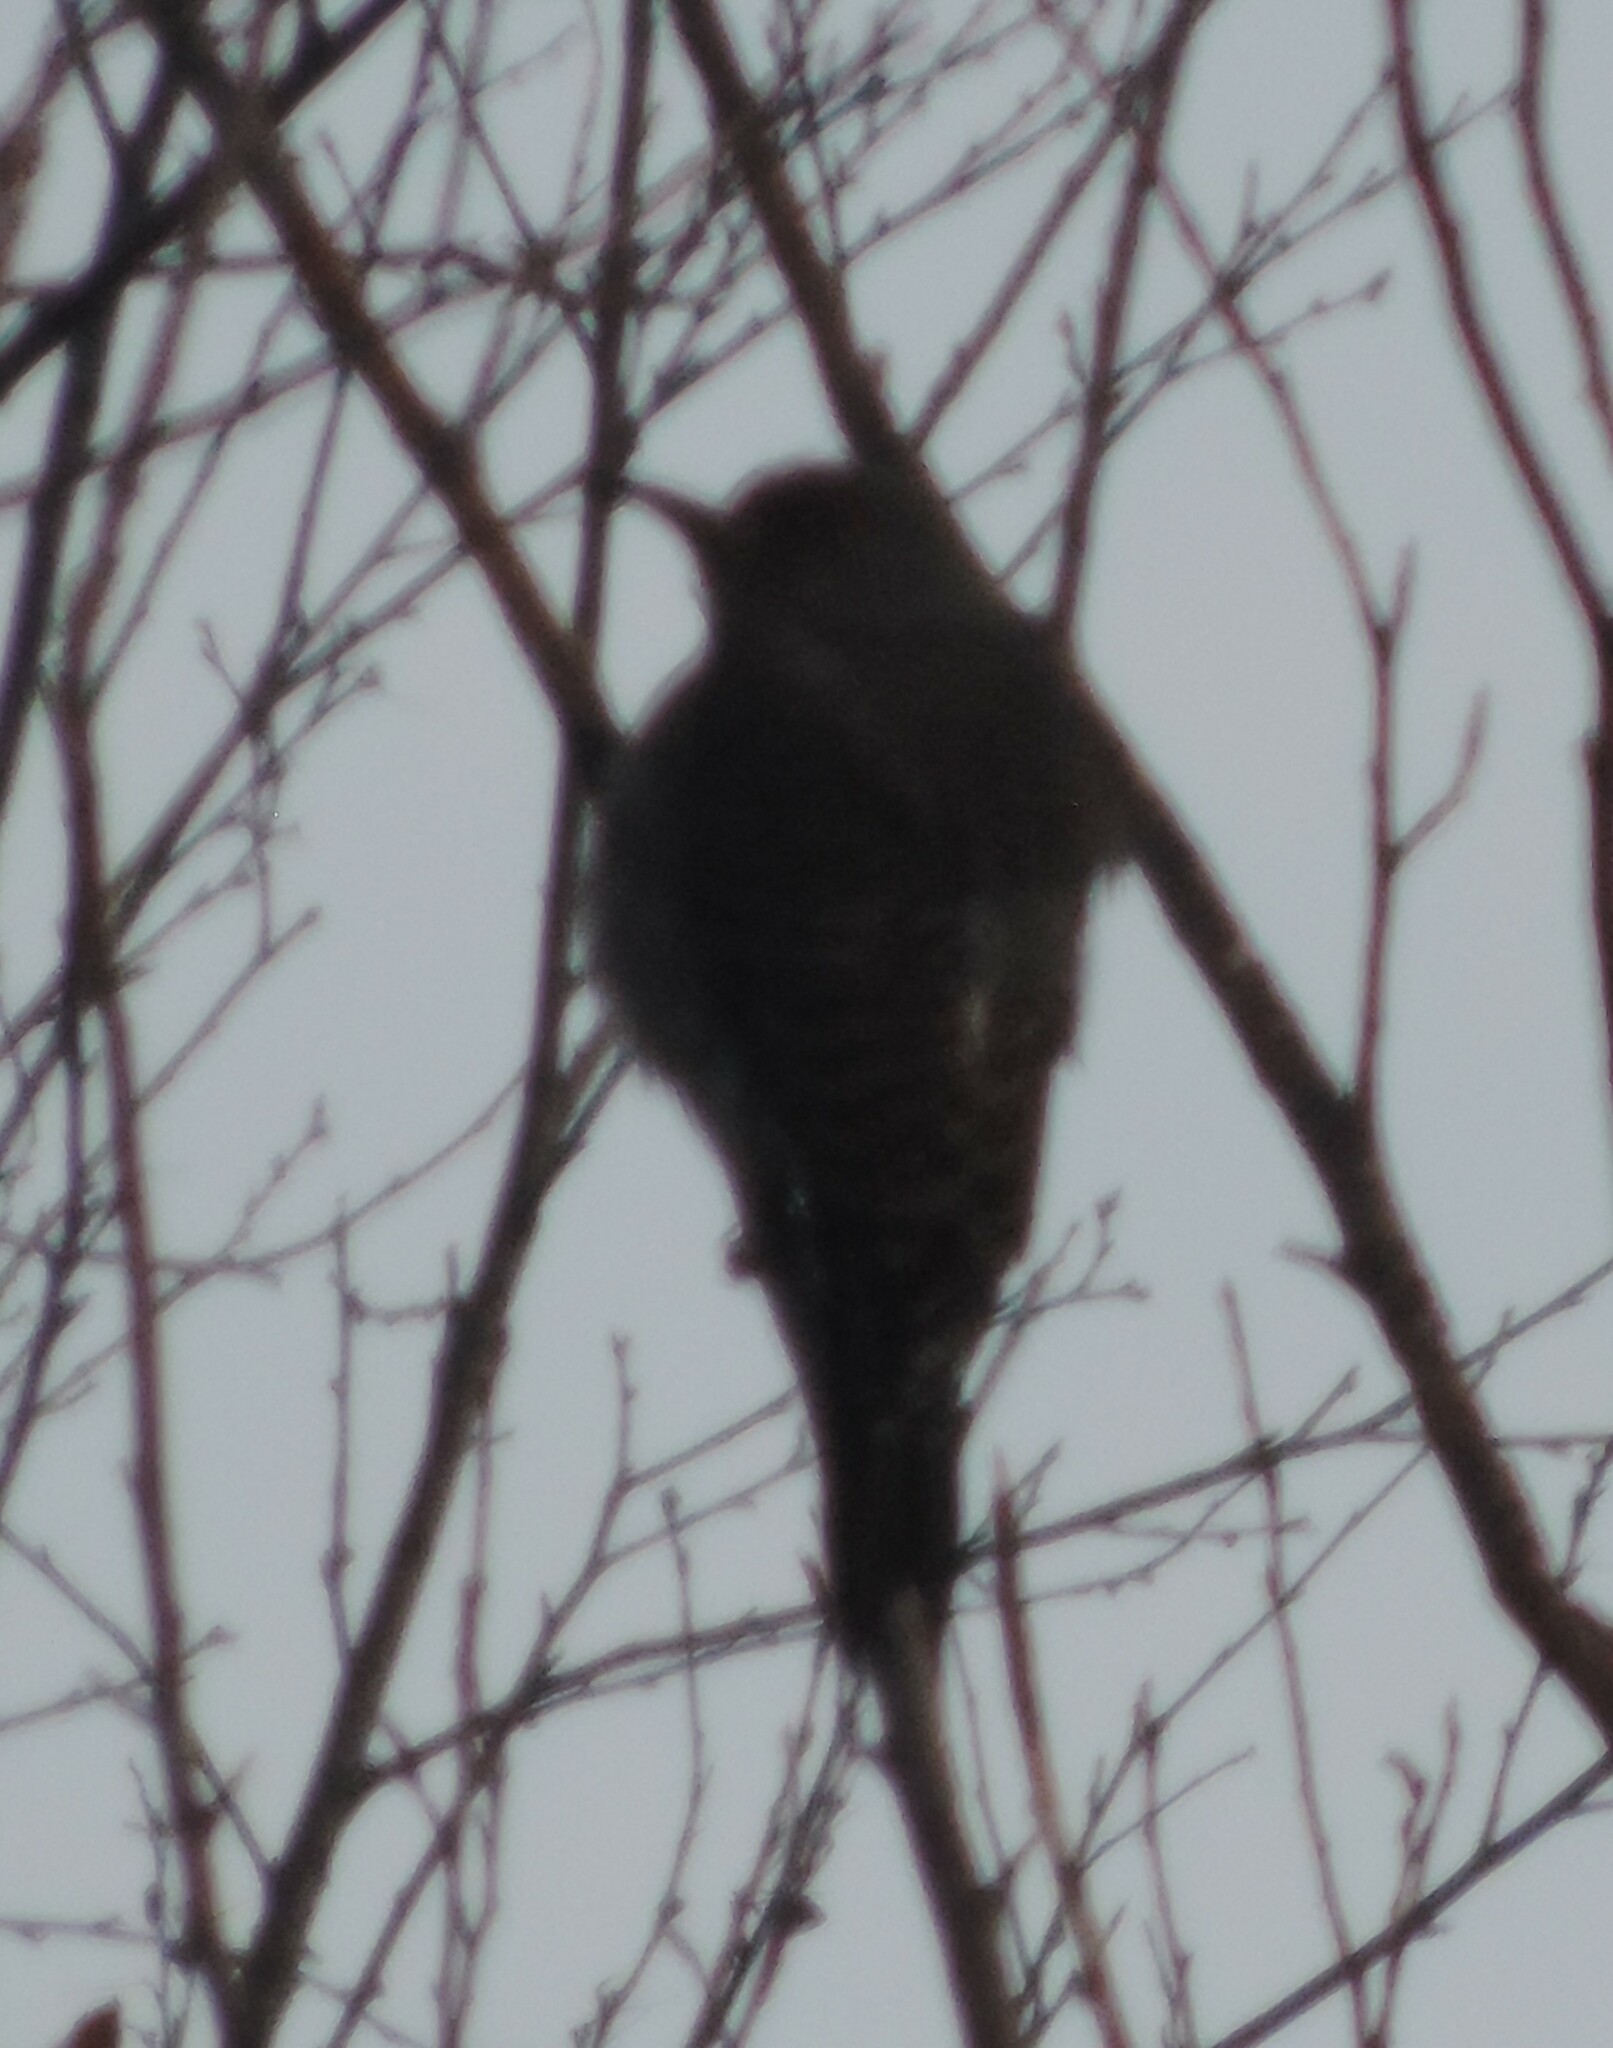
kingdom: Animalia
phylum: Chordata
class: Aves
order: Piciformes
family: Picidae
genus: Colaptes
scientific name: Colaptes auratus
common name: Northern flicker
